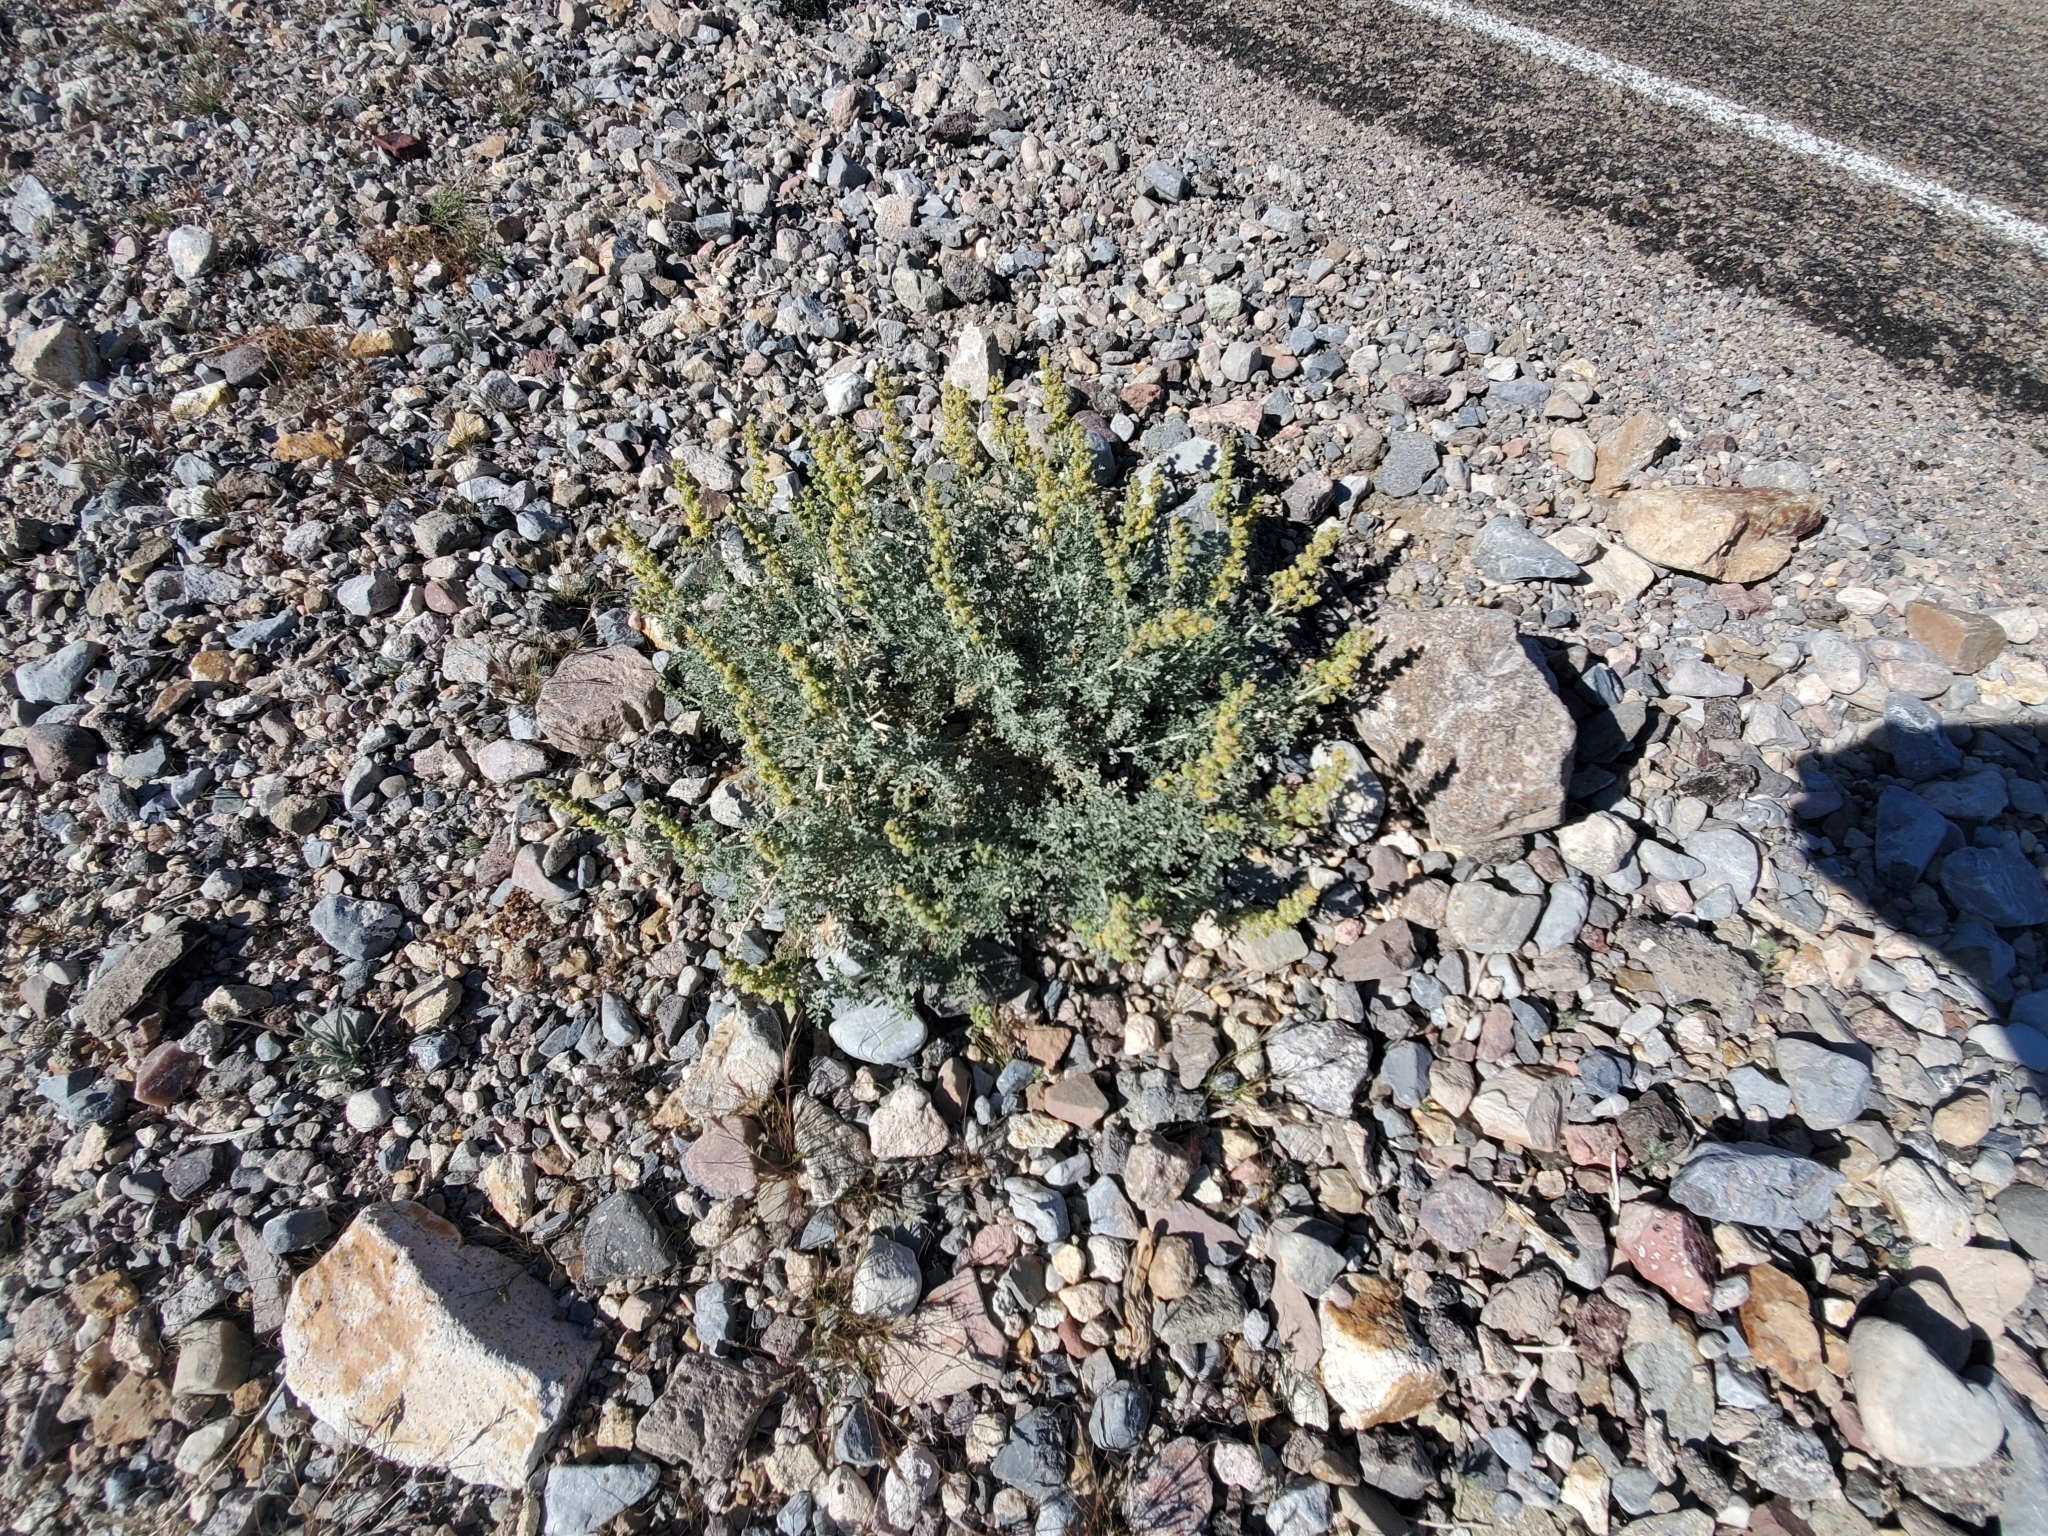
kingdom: Plantae
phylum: Tracheophyta
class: Magnoliopsida
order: Asterales
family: Asteraceae
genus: Ambrosia
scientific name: Ambrosia dumosa
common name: Bur-sage
